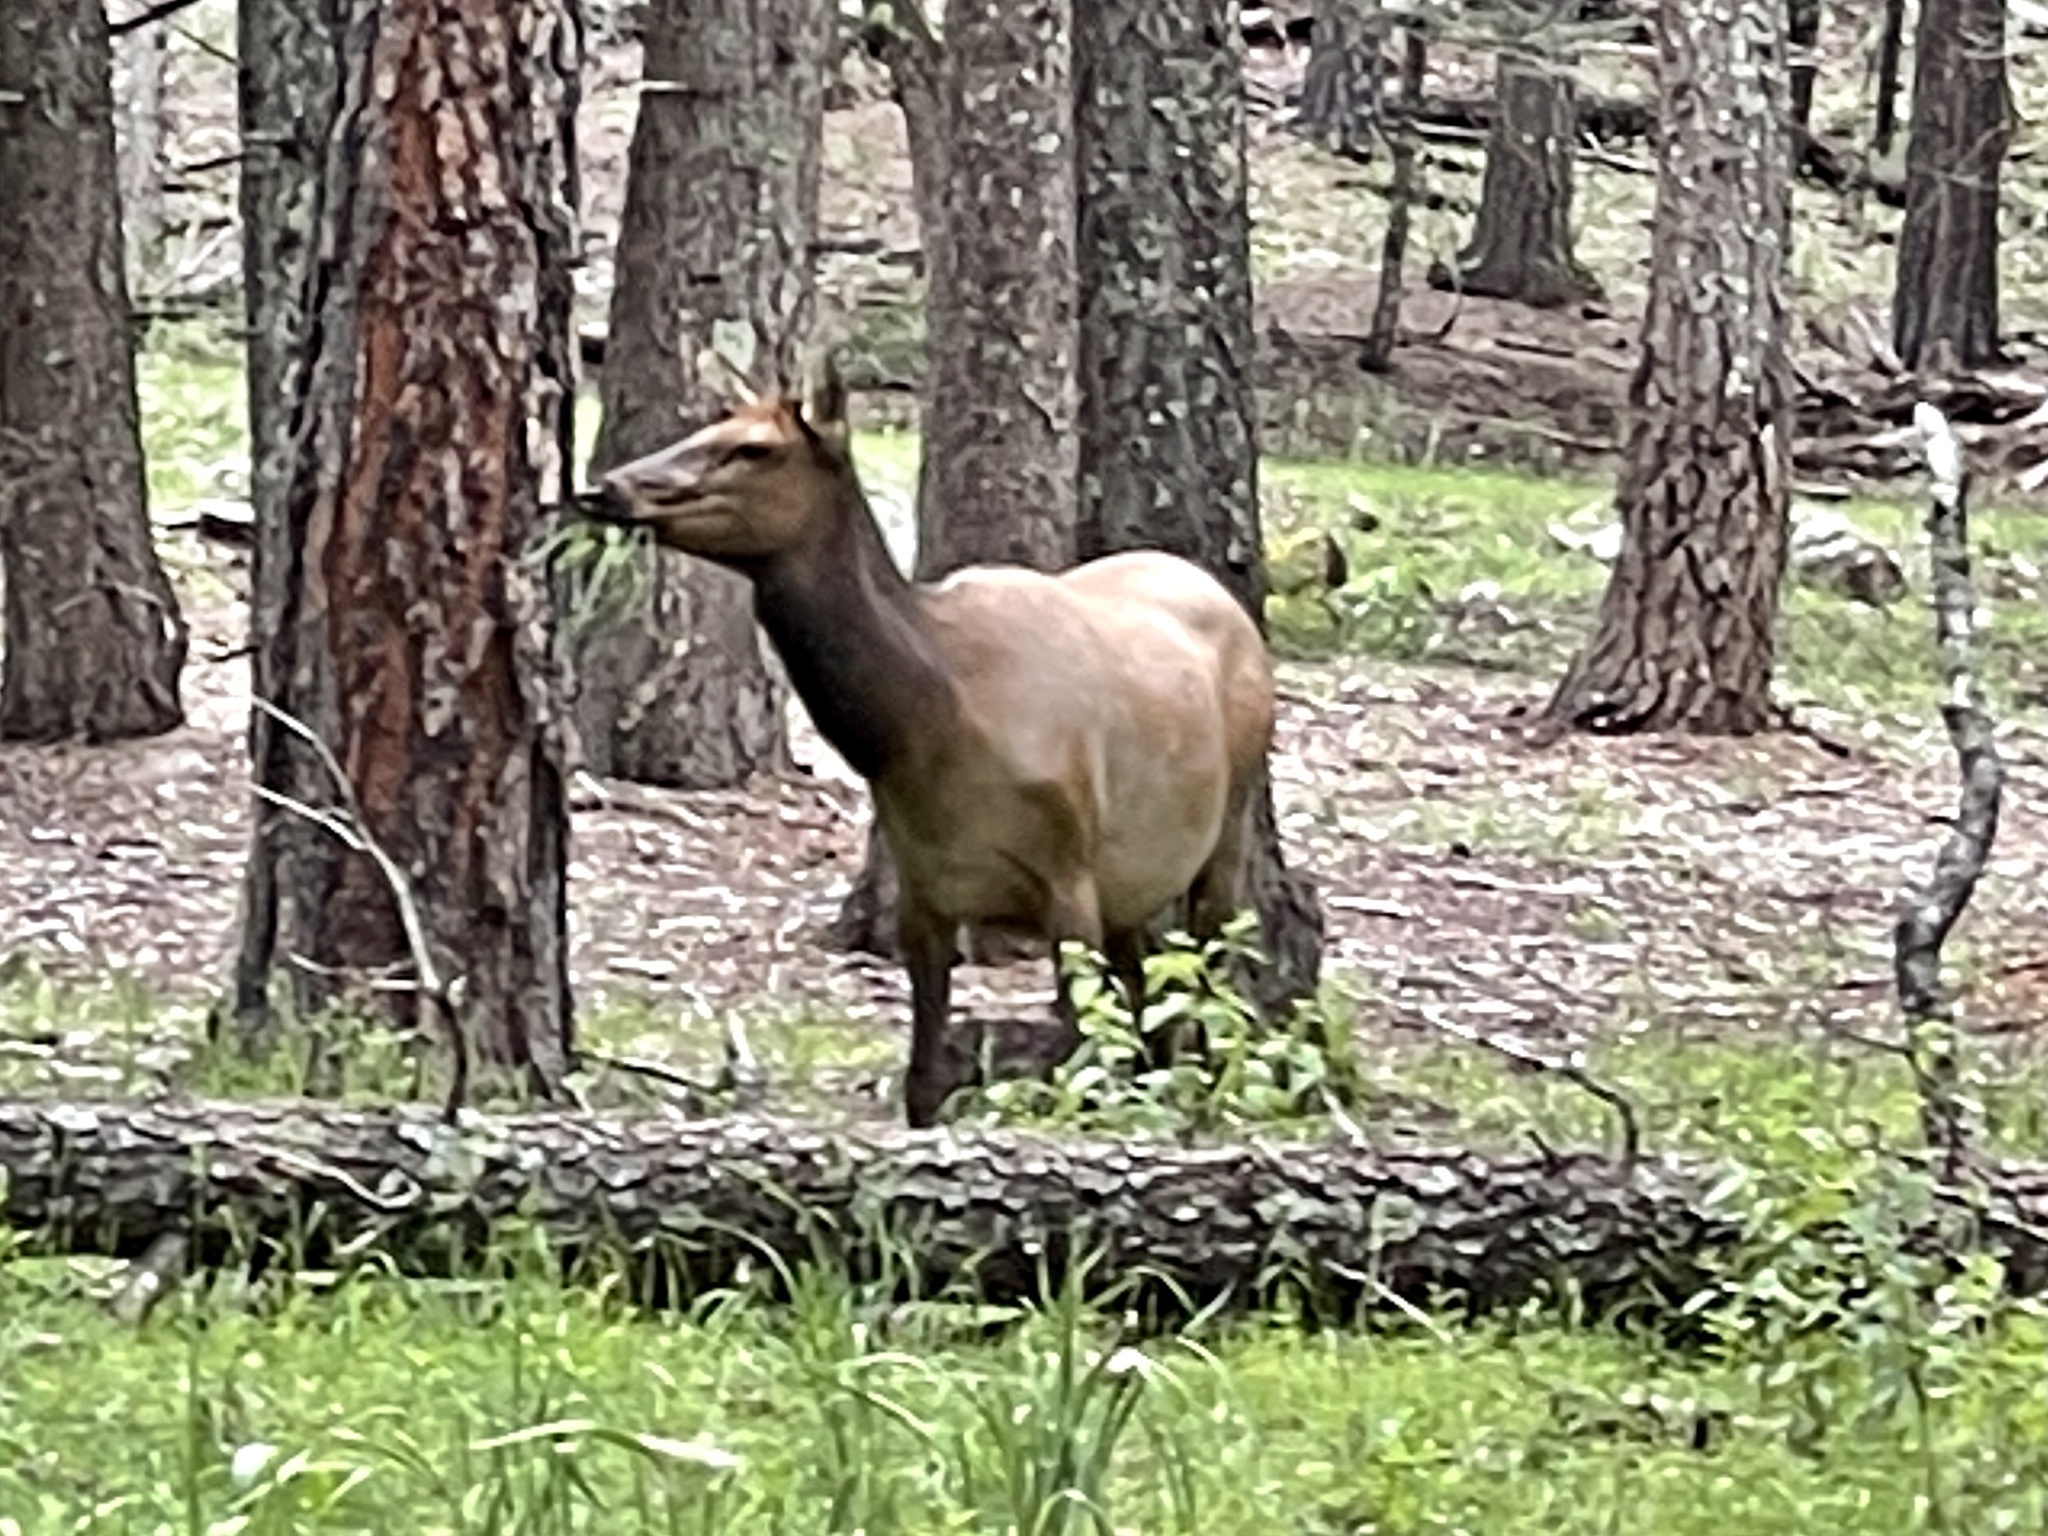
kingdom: Animalia
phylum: Chordata
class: Mammalia
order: Artiodactyla
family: Cervidae
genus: Cervus
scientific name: Cervus elaphus
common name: Red deer
